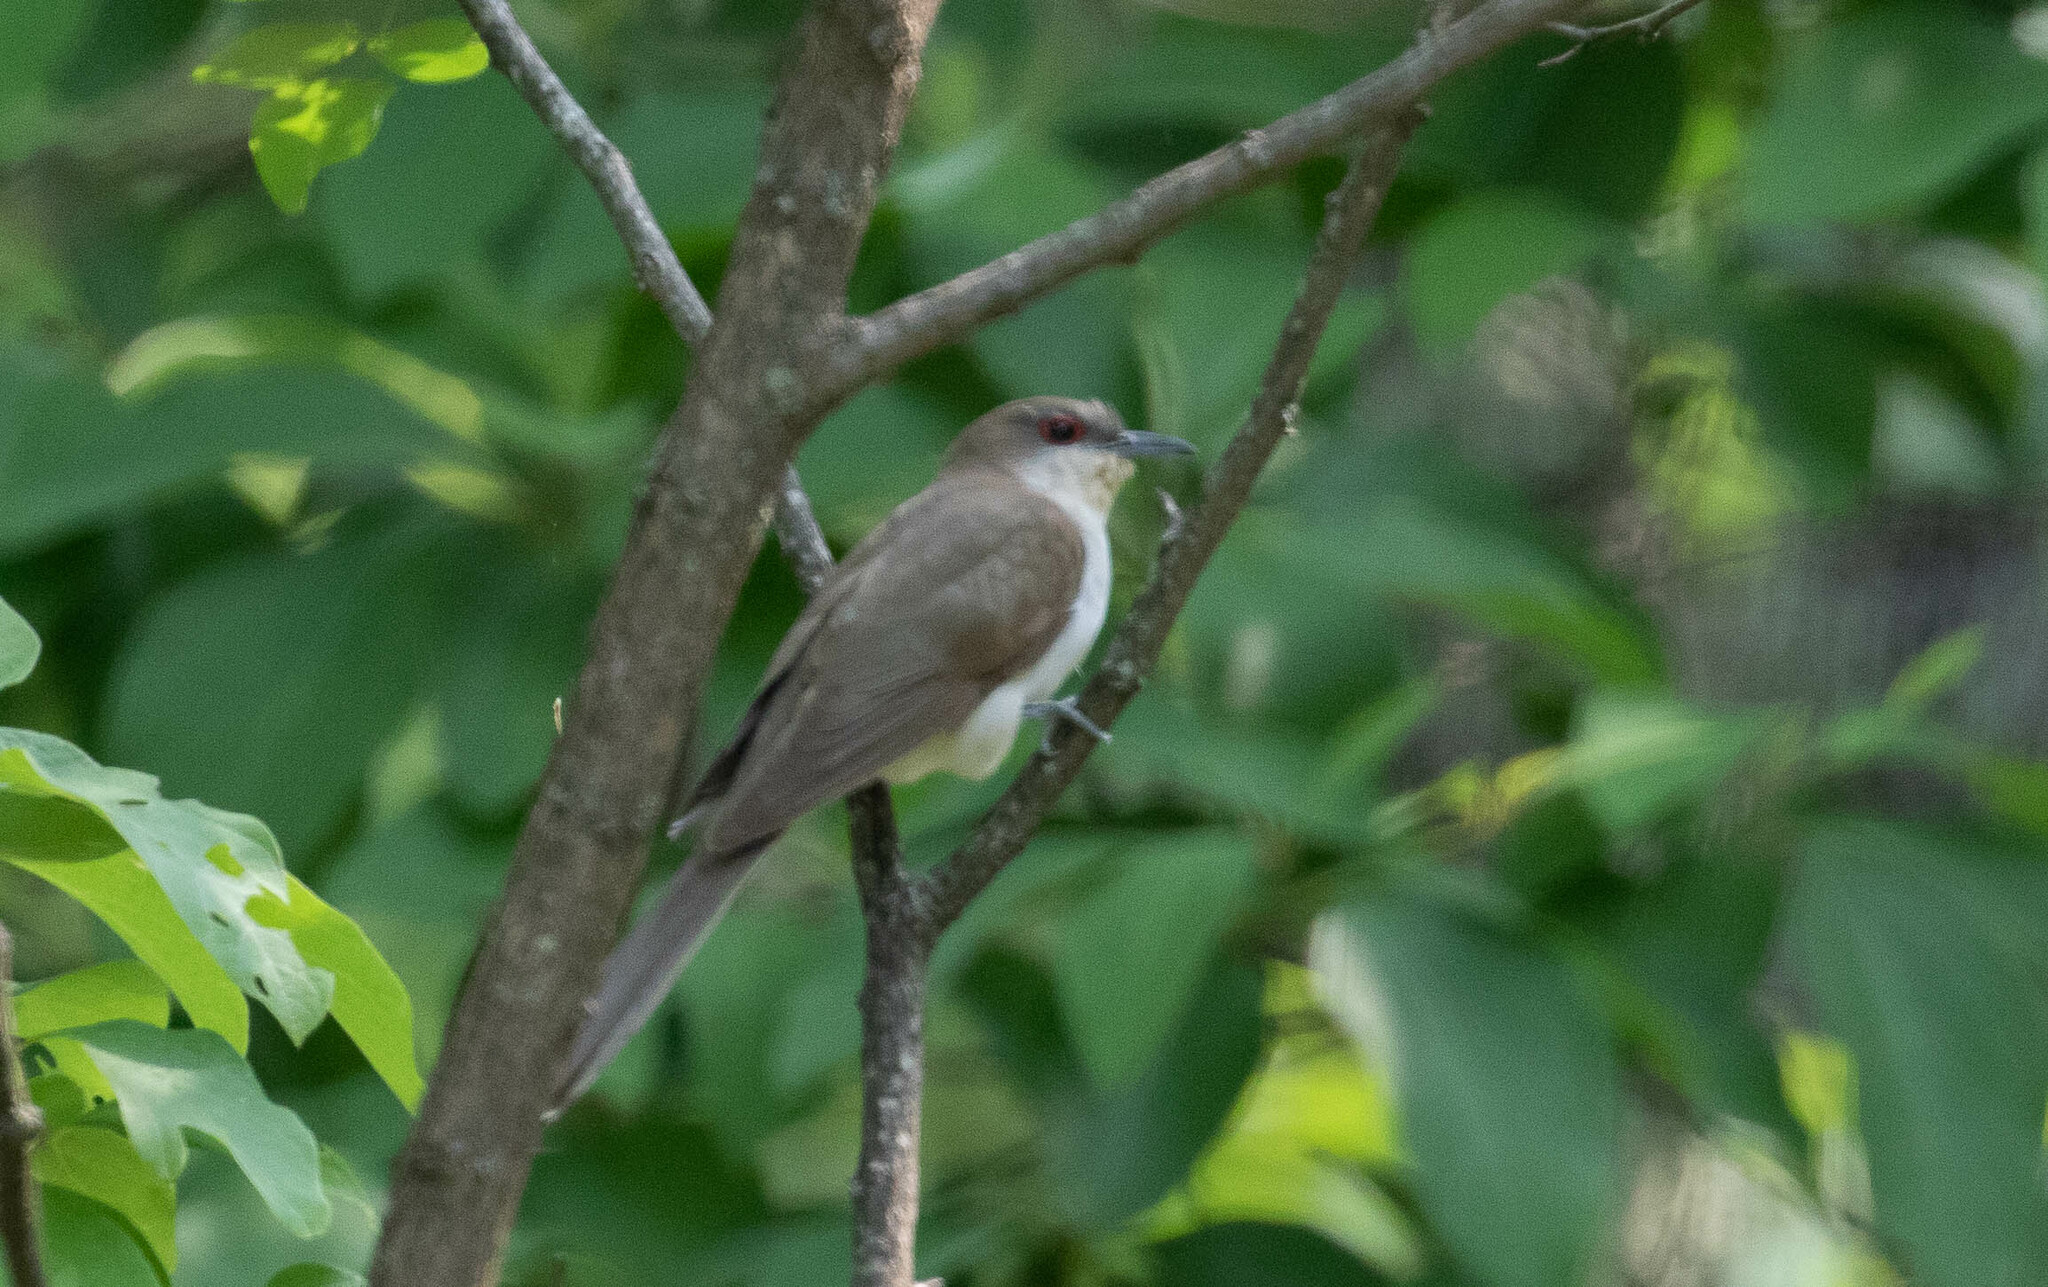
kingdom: Animalia
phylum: Chordata
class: Aves
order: Cuculiformes
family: Cuculidae
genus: Coccyzus
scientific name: Coccyzus erythropthalmus
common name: Black-billed cuckoo
